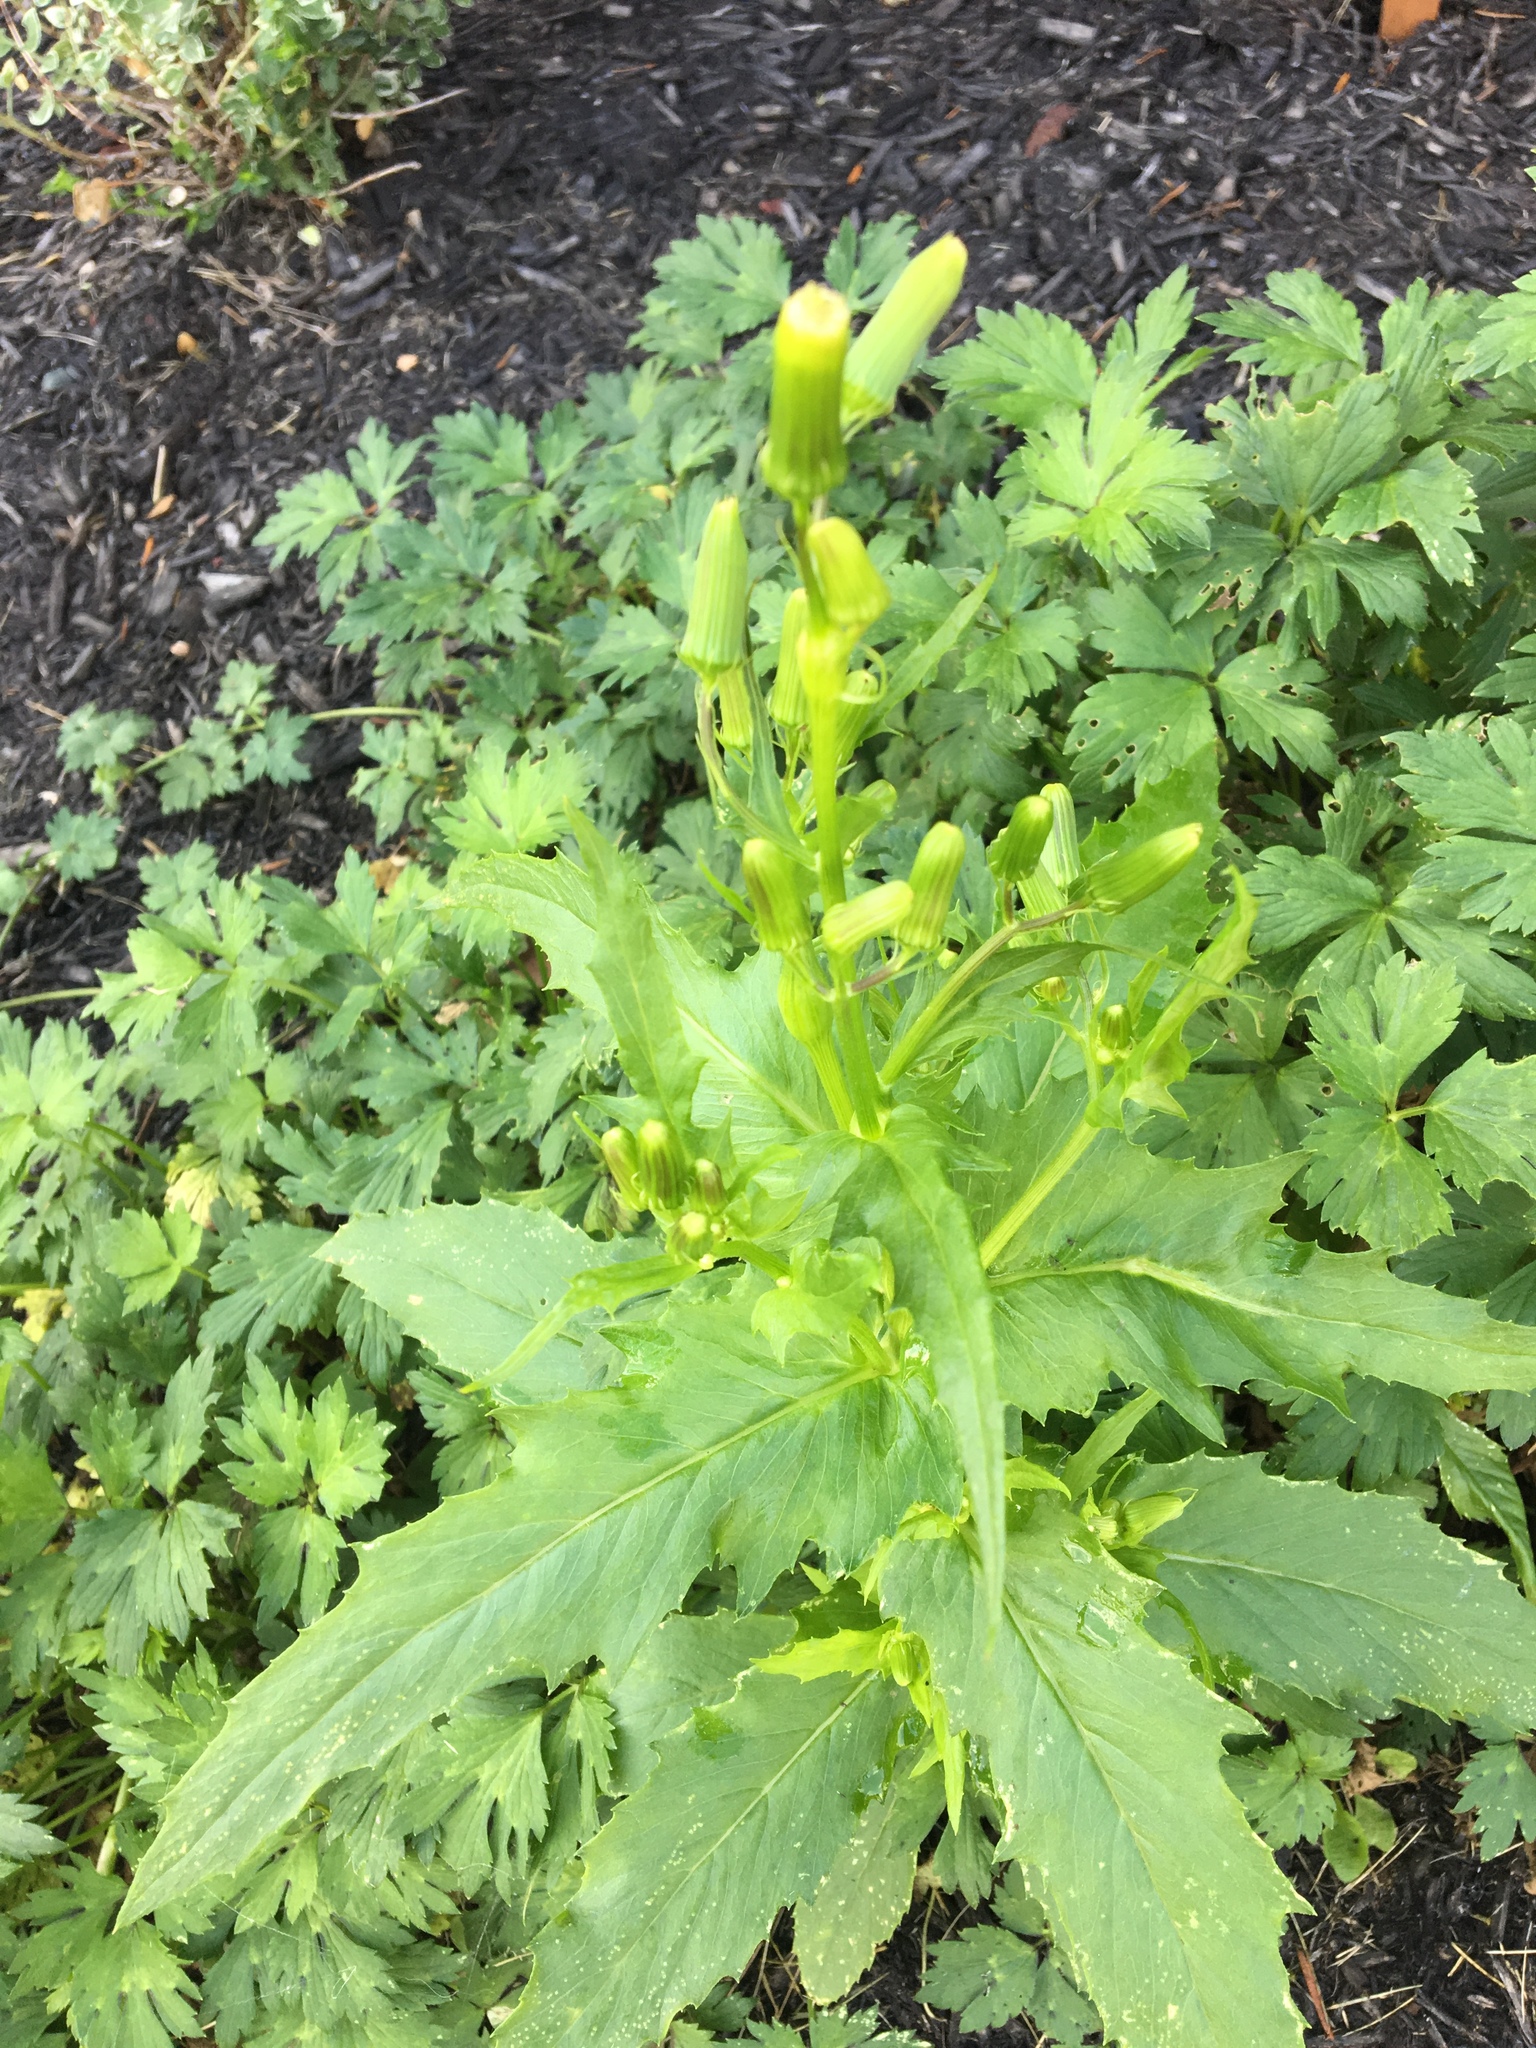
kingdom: Plantae
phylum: Tracheophyta
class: Magnoliopsida
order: Asterales
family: Asteraceae
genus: Erechtites
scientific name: Erechtites hieraciifolius
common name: American burnweed
